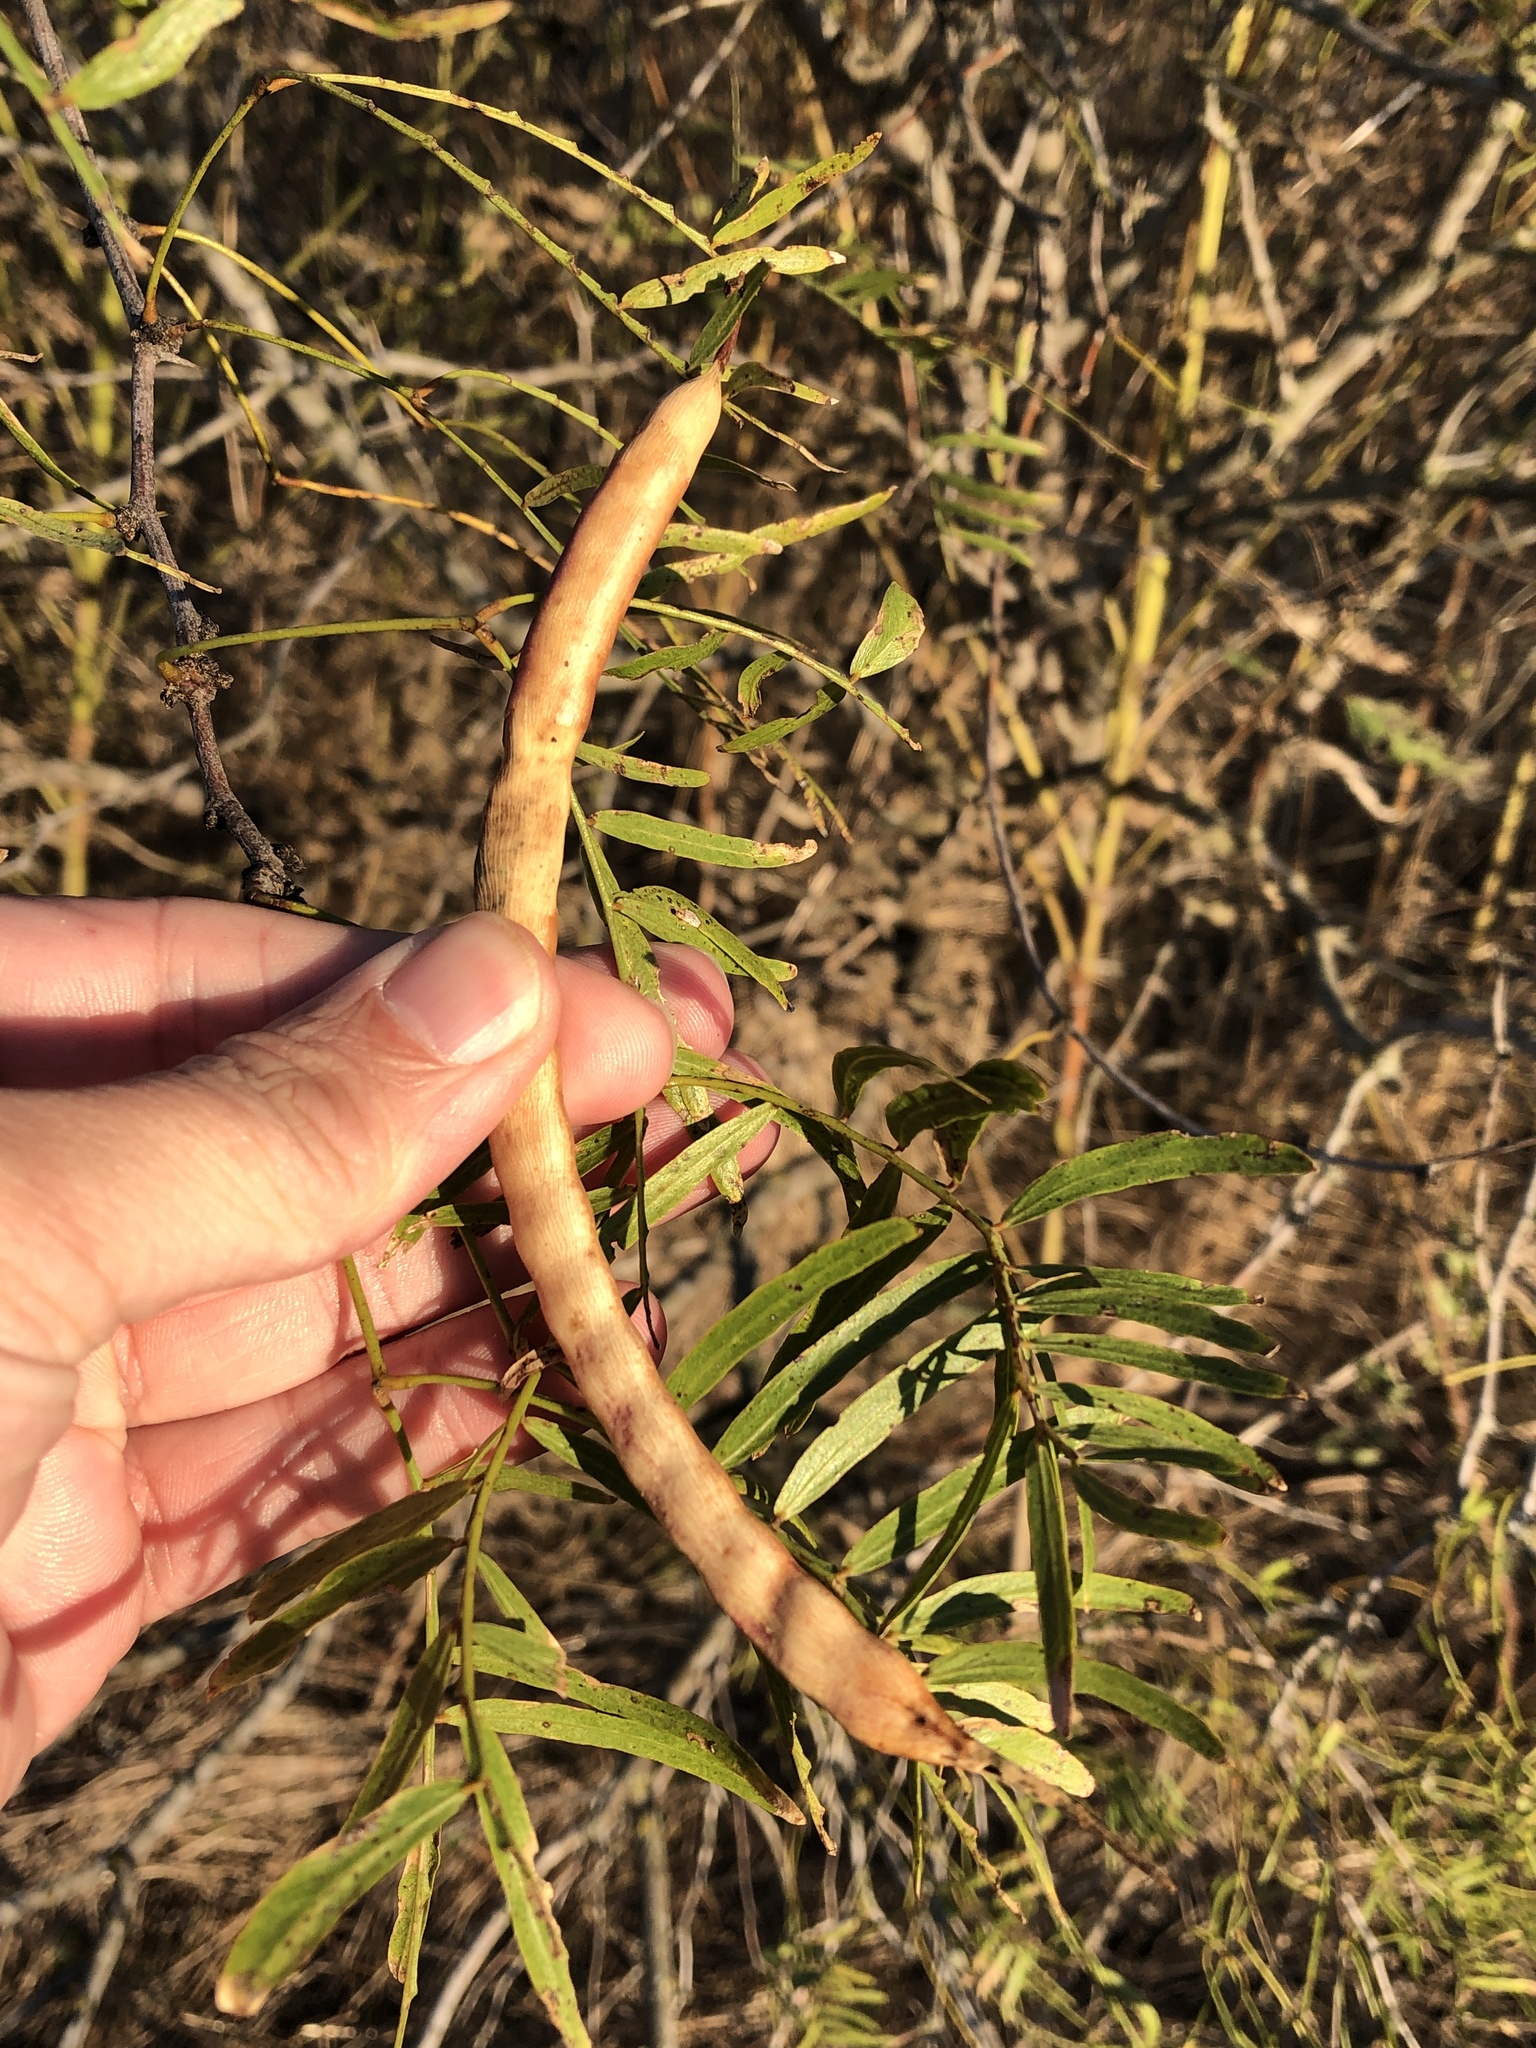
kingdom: Plantae
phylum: Tracheophyta
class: Magnoliopsida
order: Fabales
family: Fabaceae
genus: Prosopis
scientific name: Prosopis glandulosa
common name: Honey mesquite
